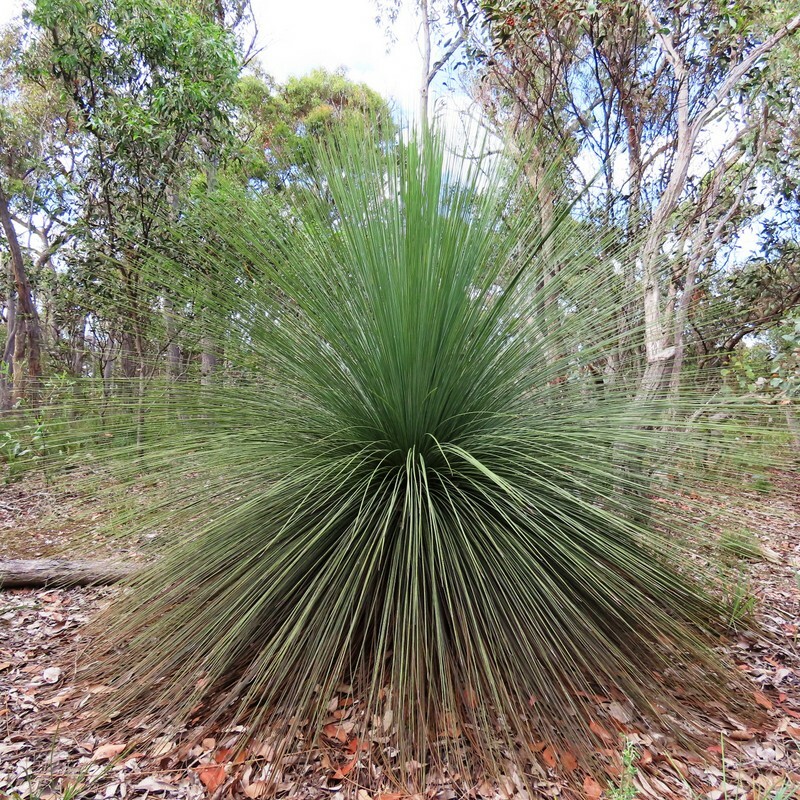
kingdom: Plantae
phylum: Tracheophyta
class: Liliopsida
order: Asparagales
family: Asphodelaceae
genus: Xanthorrhoea
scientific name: Xanthorrhoea australis
